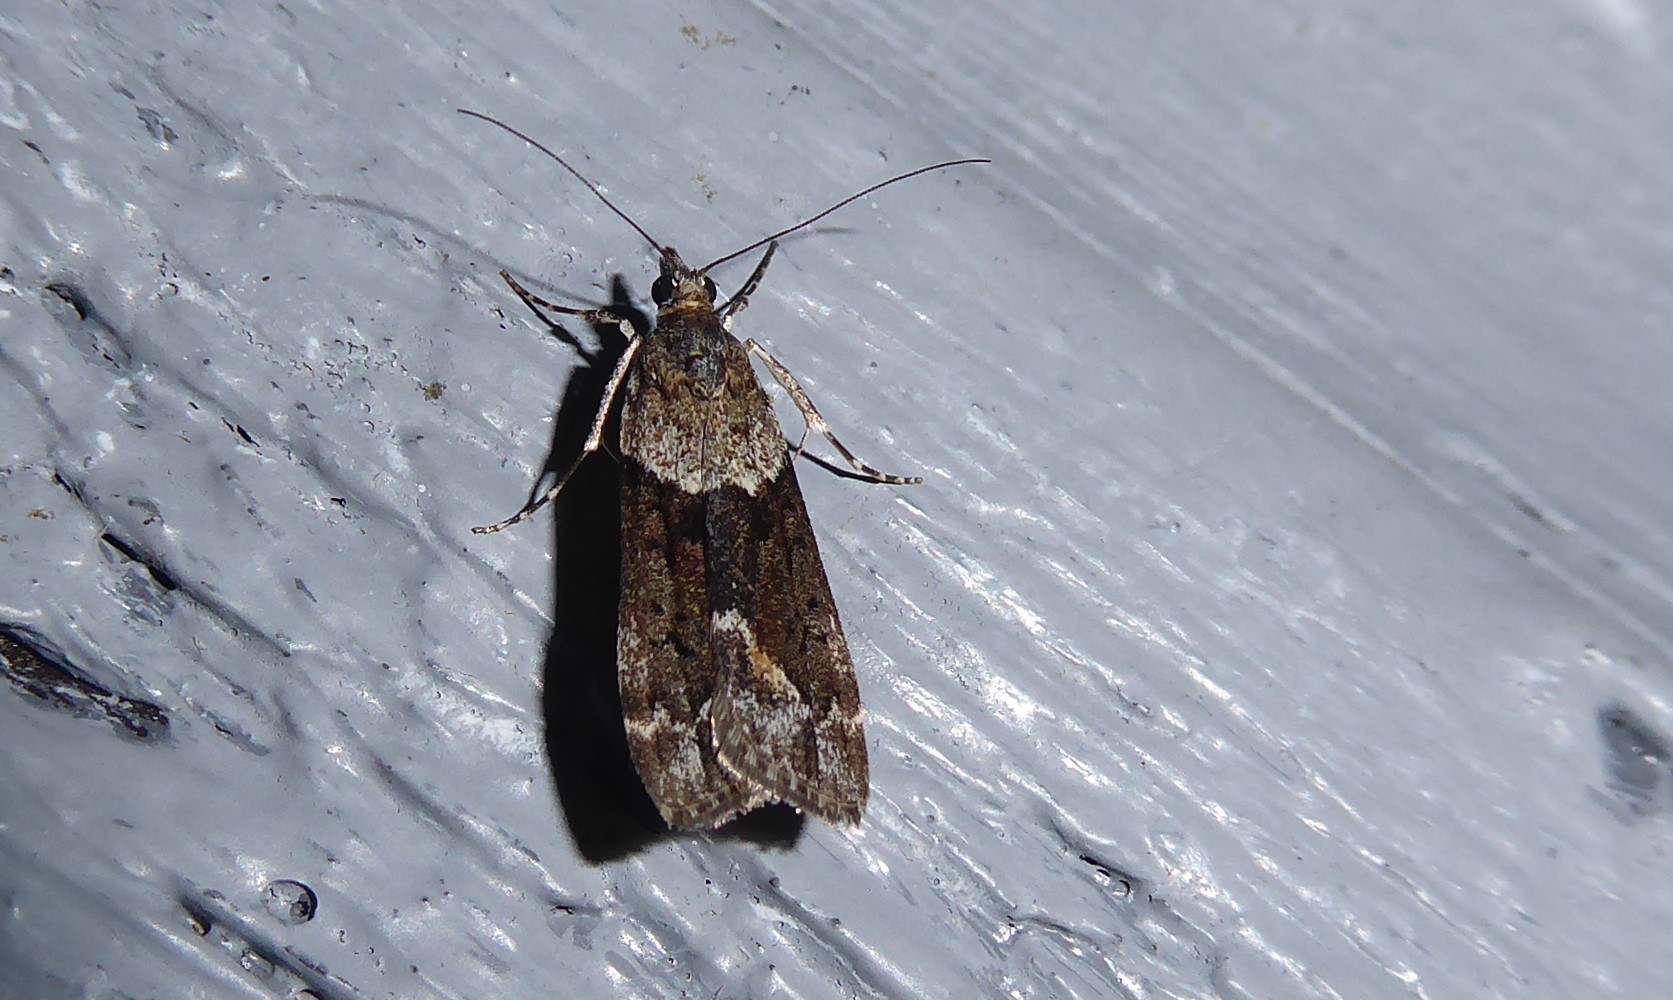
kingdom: Animalia
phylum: Arthropoda
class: Insecta
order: Lepidoptera
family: Crambidae
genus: Eudonia
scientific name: Eudonia submarginalis
